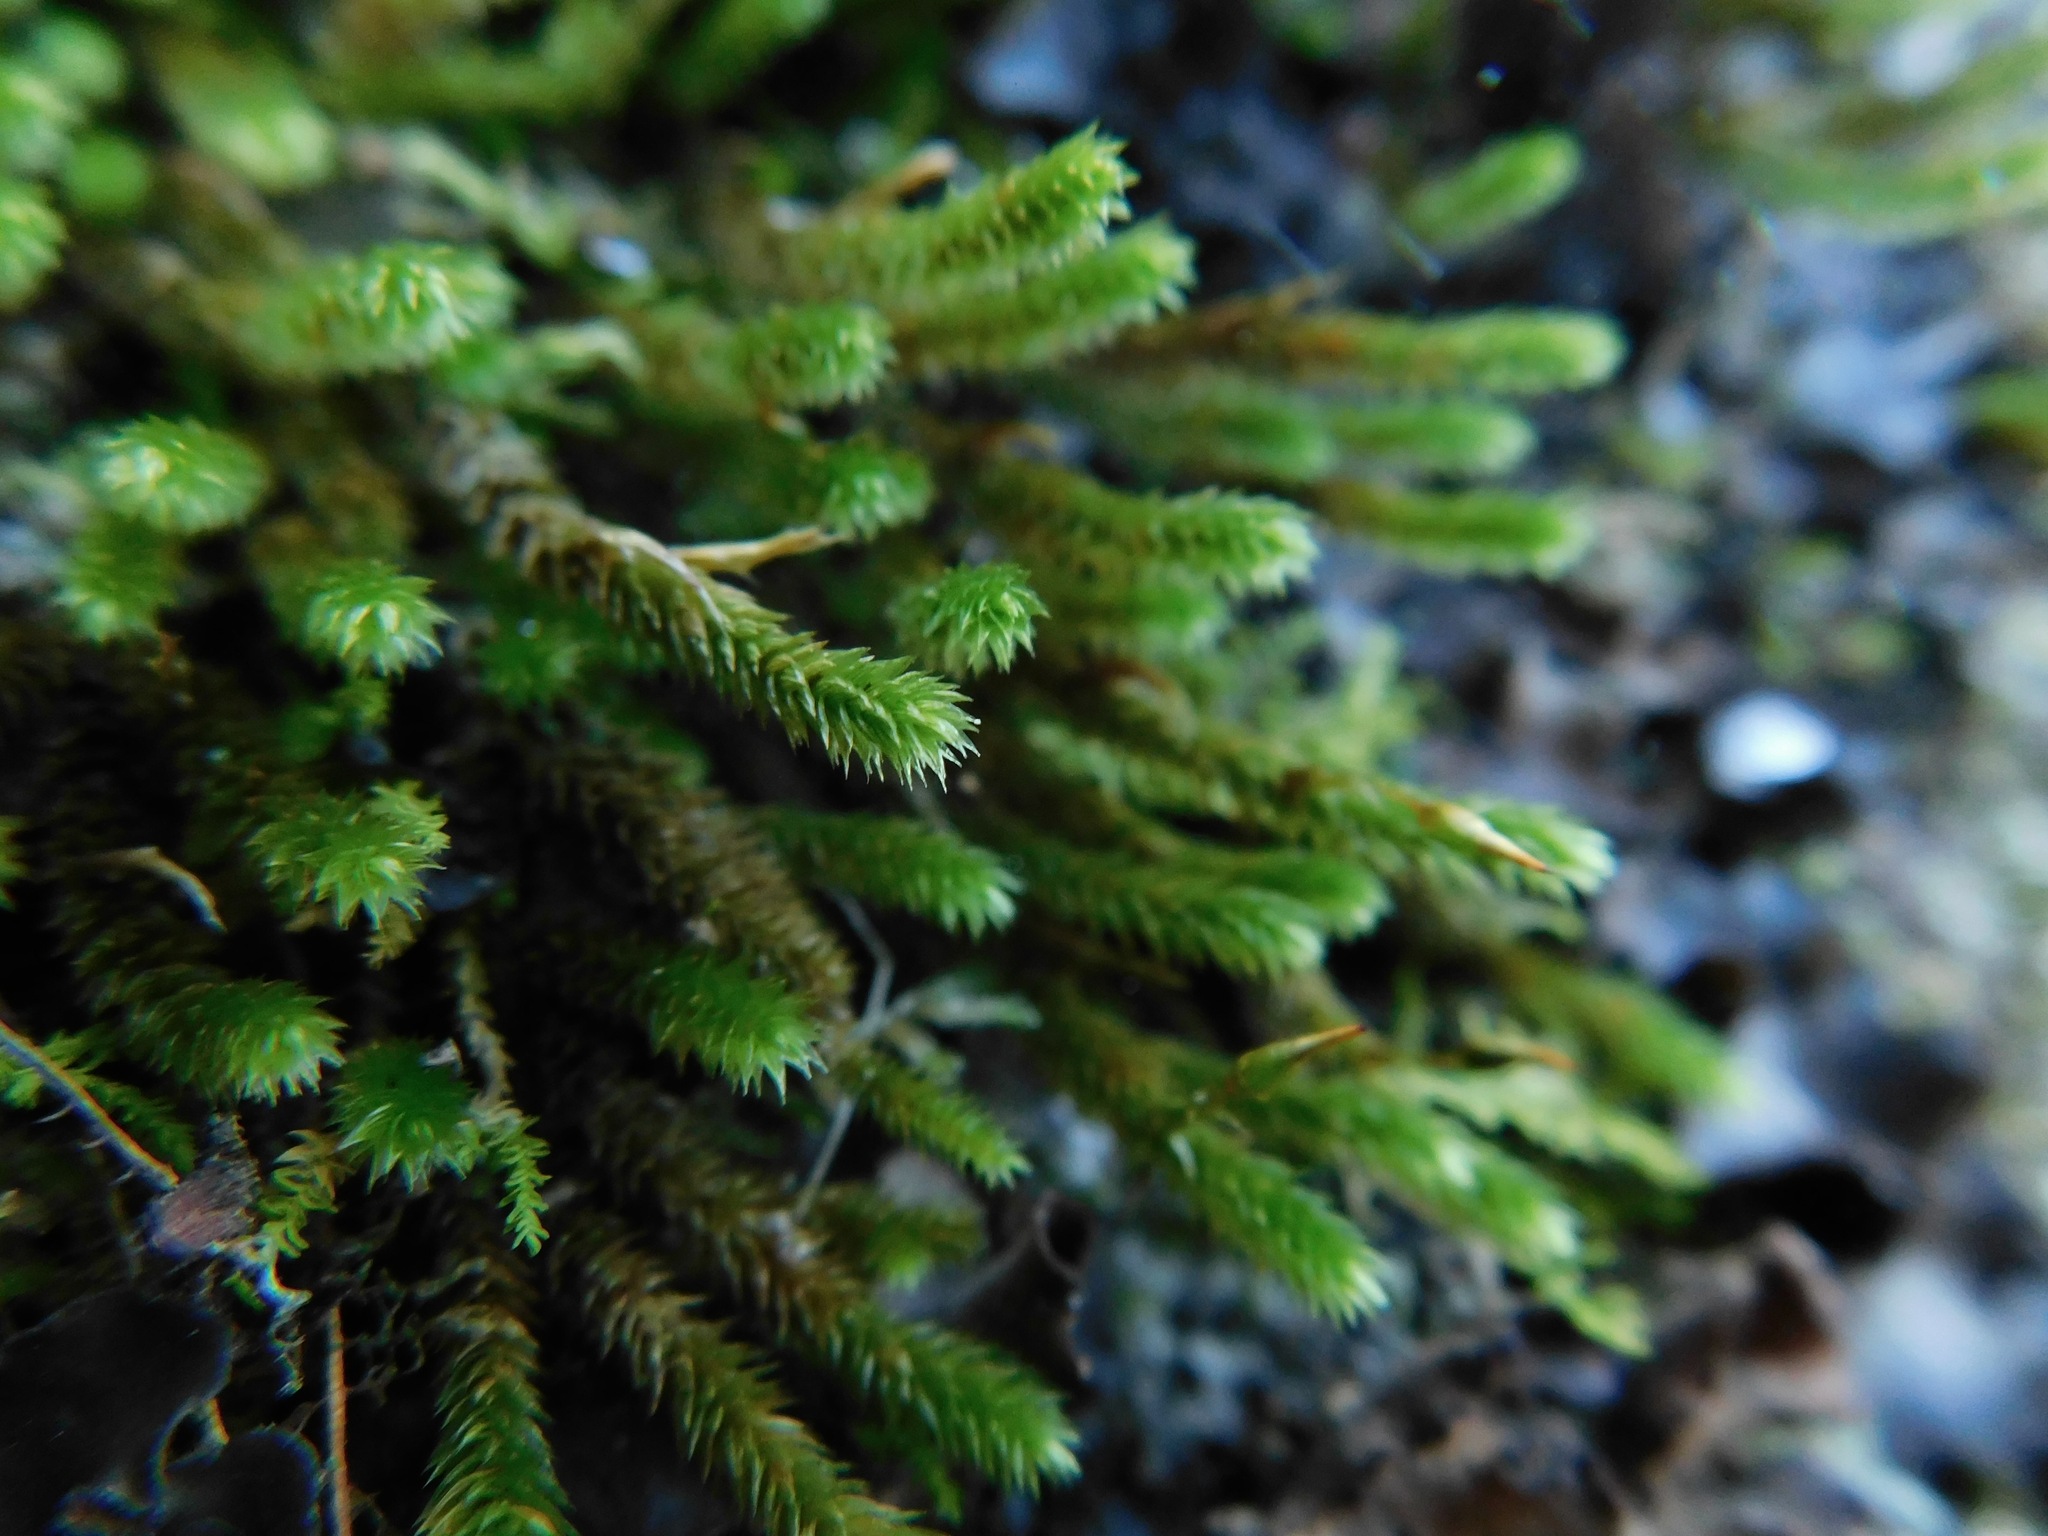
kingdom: Plantae
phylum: Bryophyta
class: Bryopsida
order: Hypnales
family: Leucodontaceae
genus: Leucodon
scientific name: Leucodon julaceus
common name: Smooth hook moss
